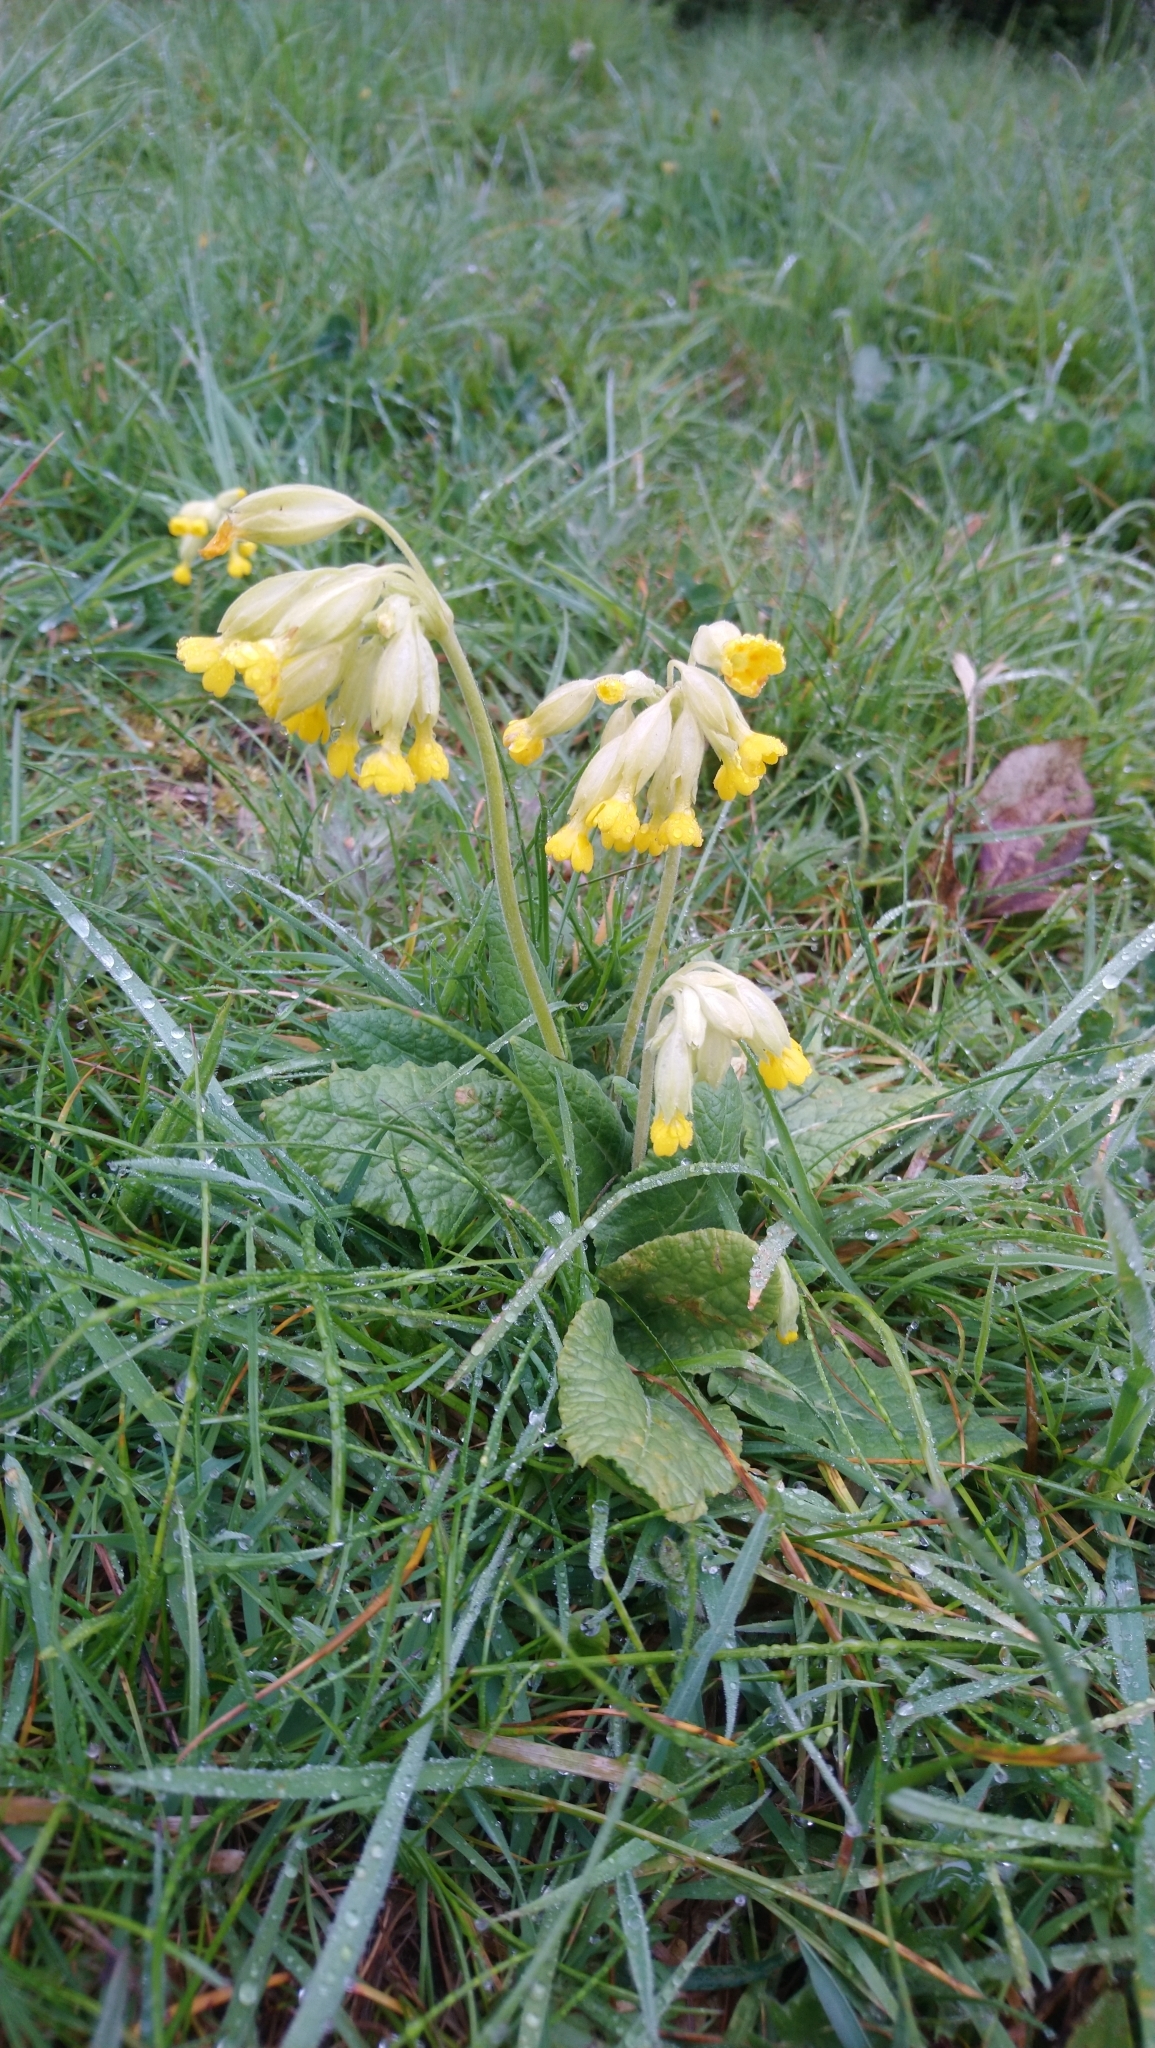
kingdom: Plantae
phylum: Tracheophyta
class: Magnoliopsida
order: Ericales
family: Primulaceae
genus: Primula
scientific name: Primula veris
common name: Cowslip
